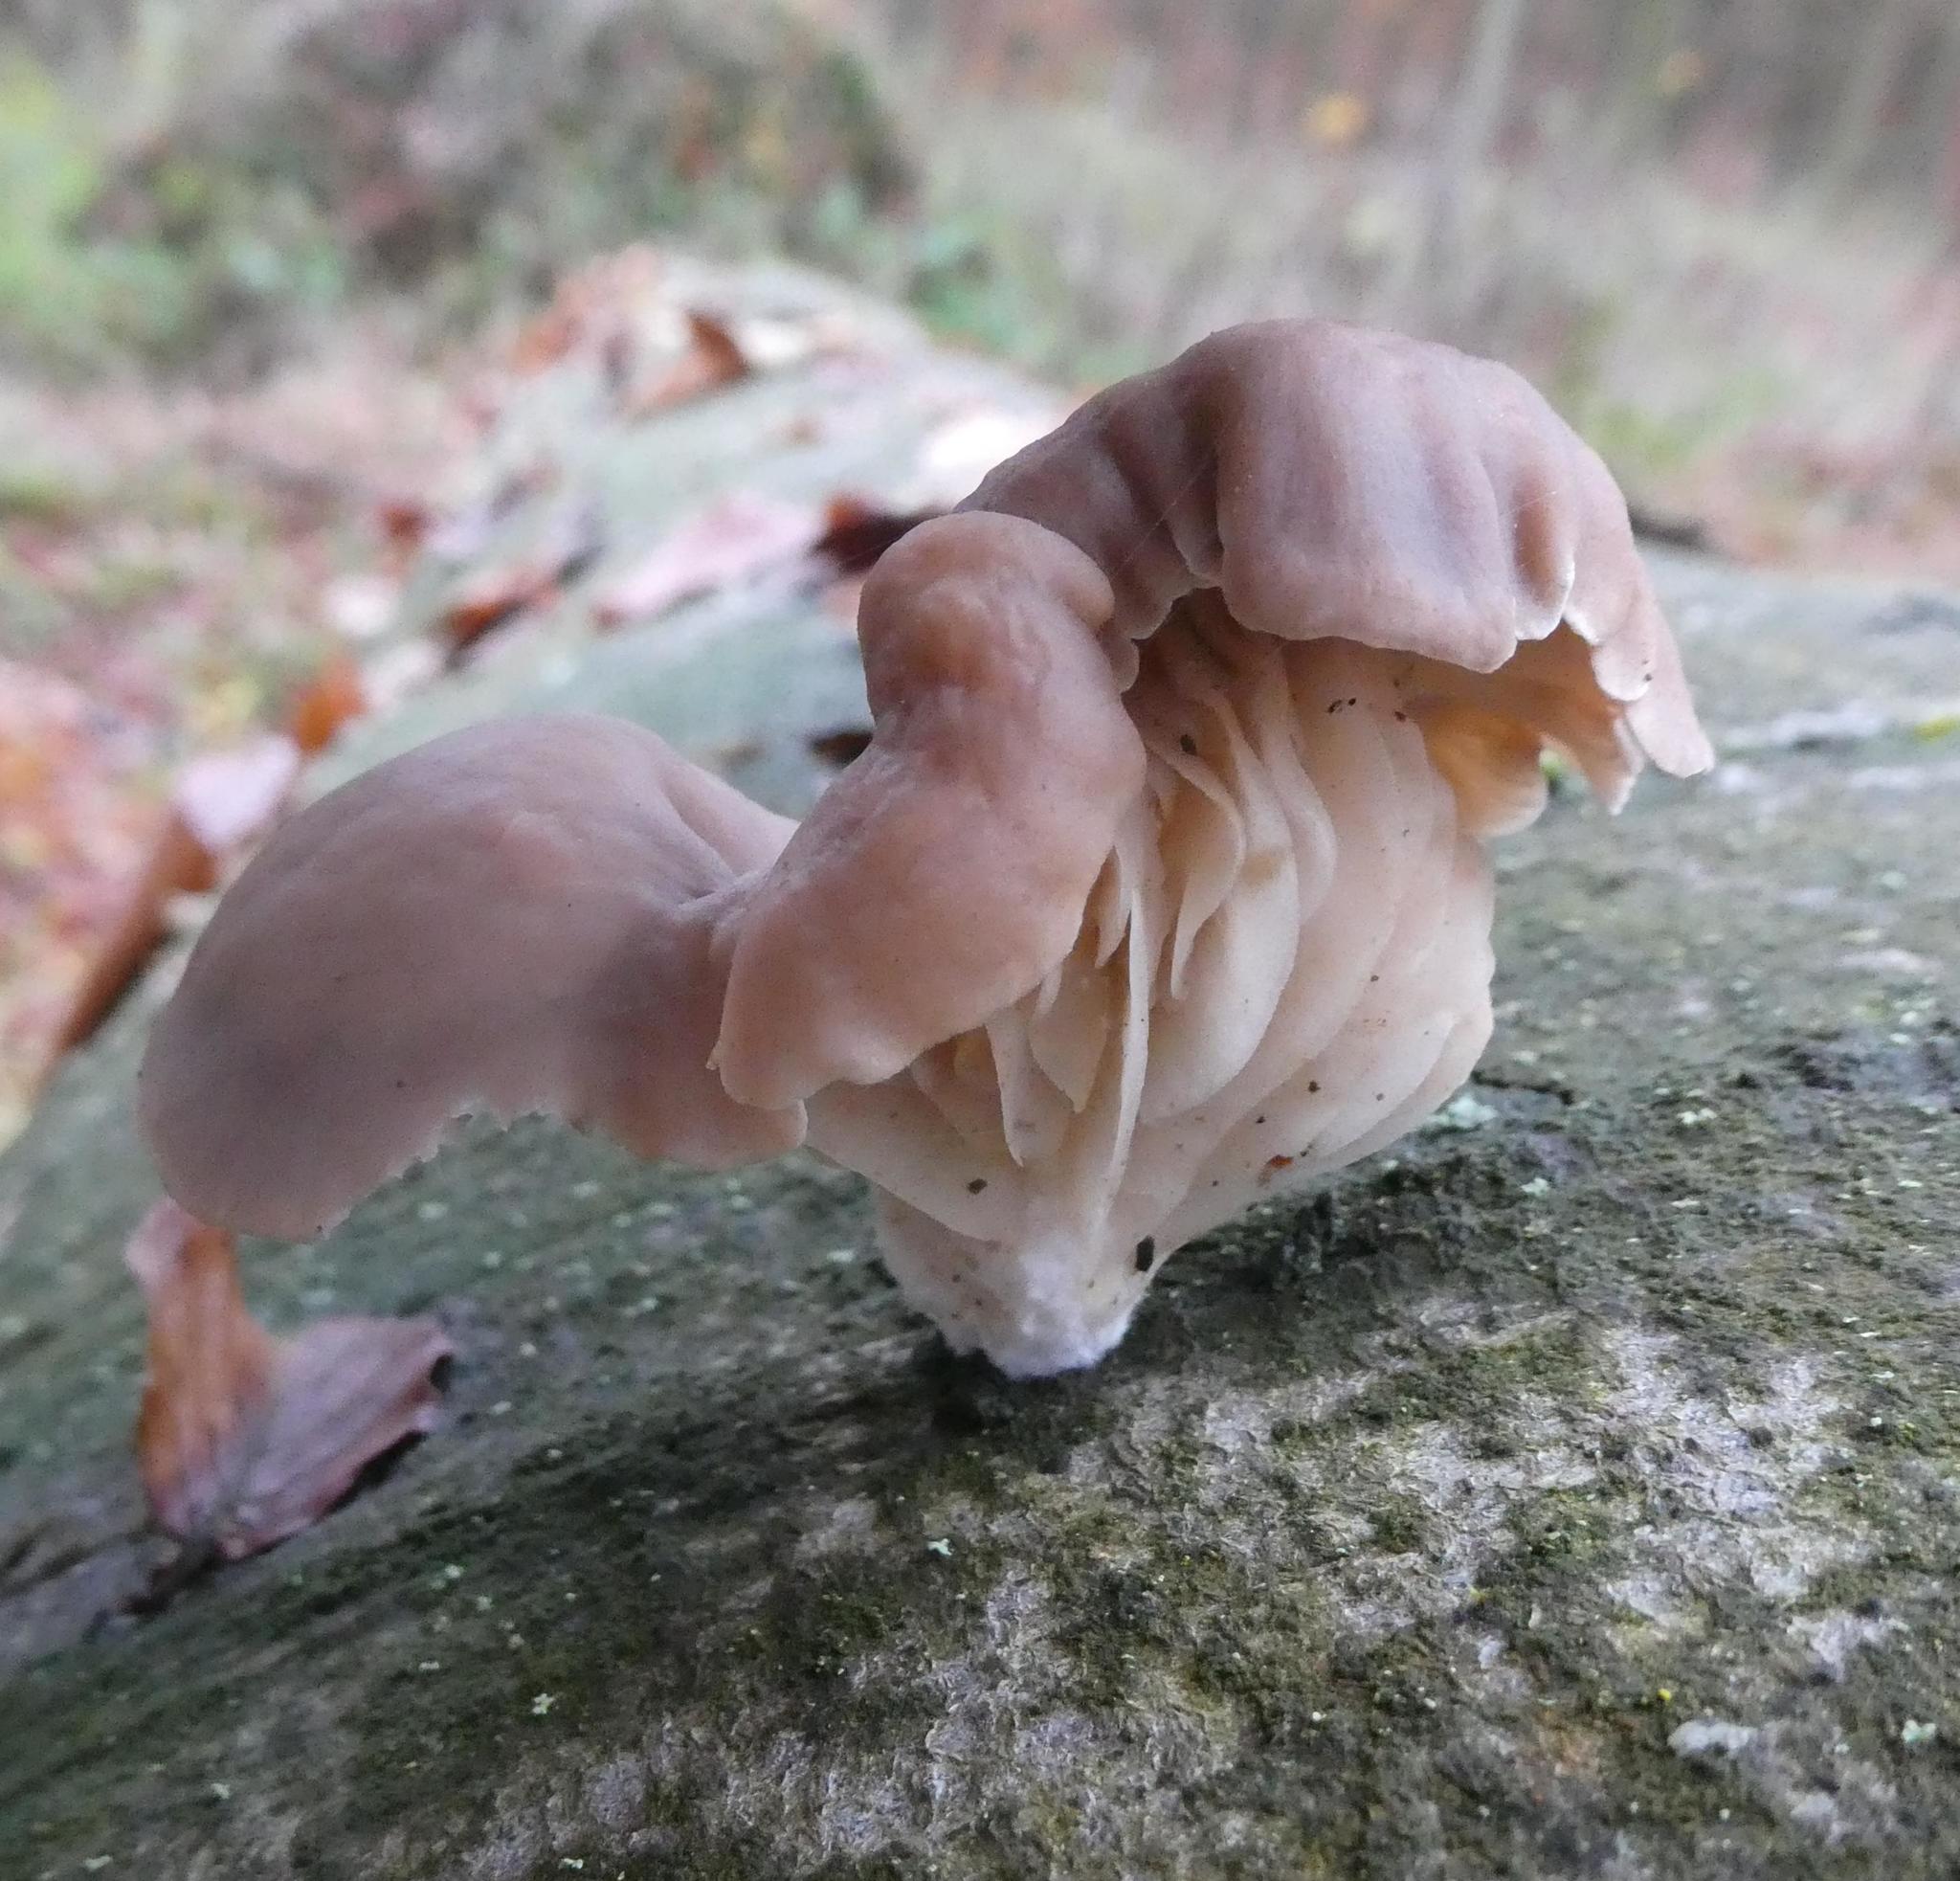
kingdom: Fungi
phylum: Basidiomycota
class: Agaricomycetes
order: Agaricales
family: Pleurotaceae
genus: Pleurotus
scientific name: Pleurotus ostreatus
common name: Oyster mushroom
